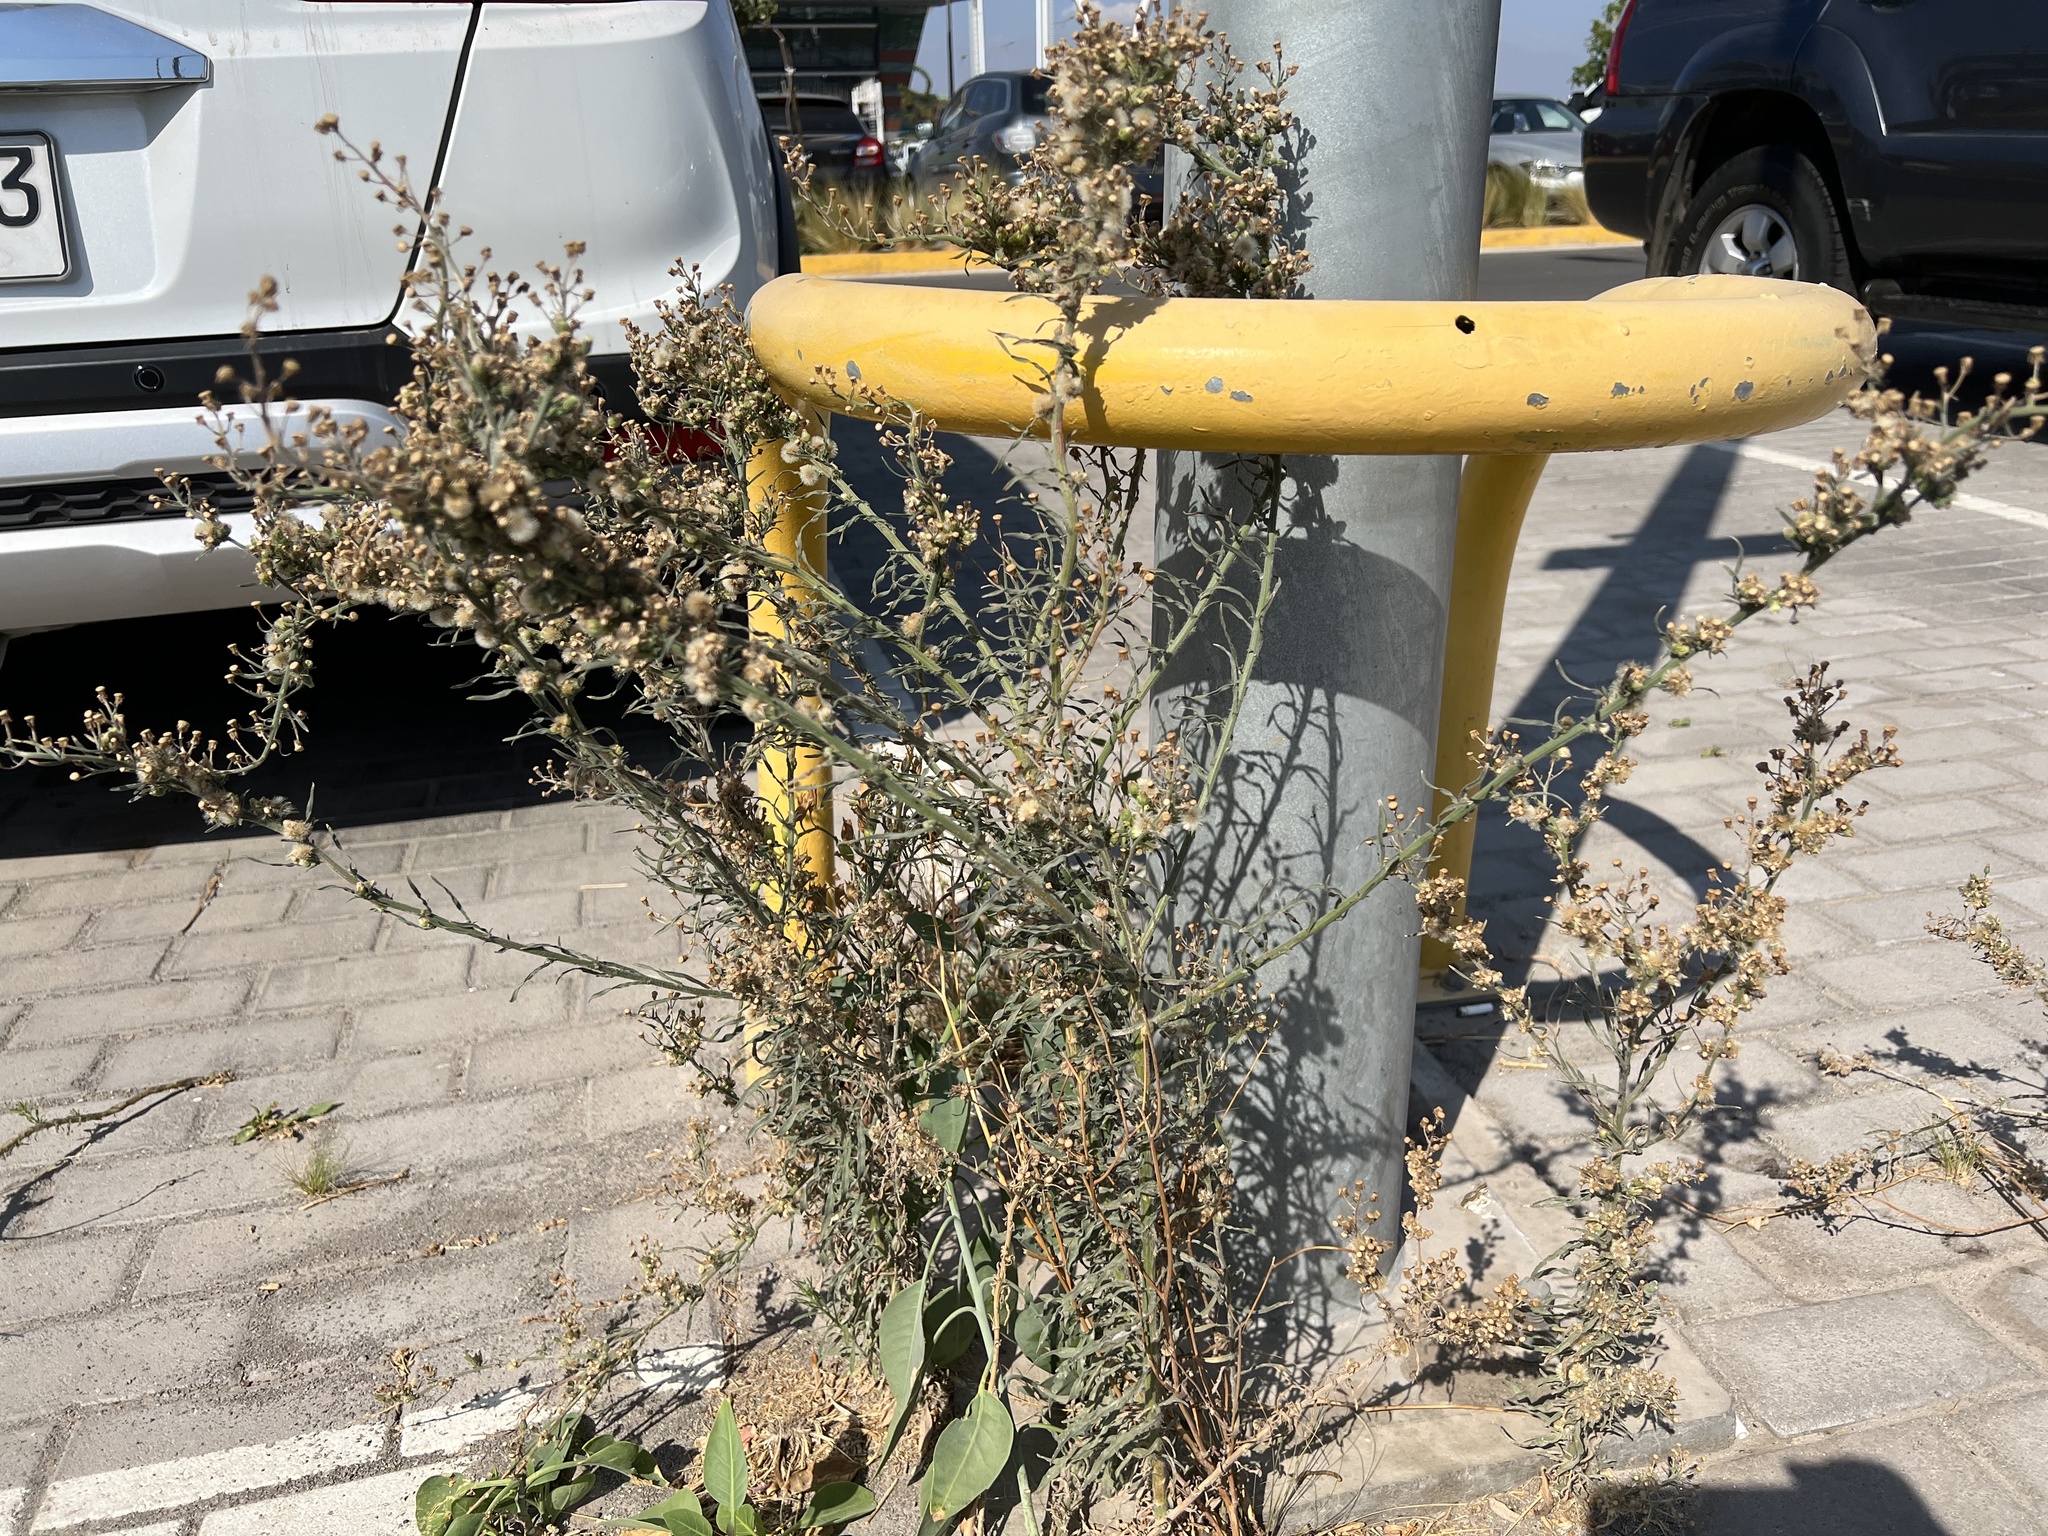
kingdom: Plantae
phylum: Tracheophyta
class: Magnoliopsida
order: Asterales
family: Asteraceae
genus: Erigeron
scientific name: Erigeron bonariensis
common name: Argentine fleabane
